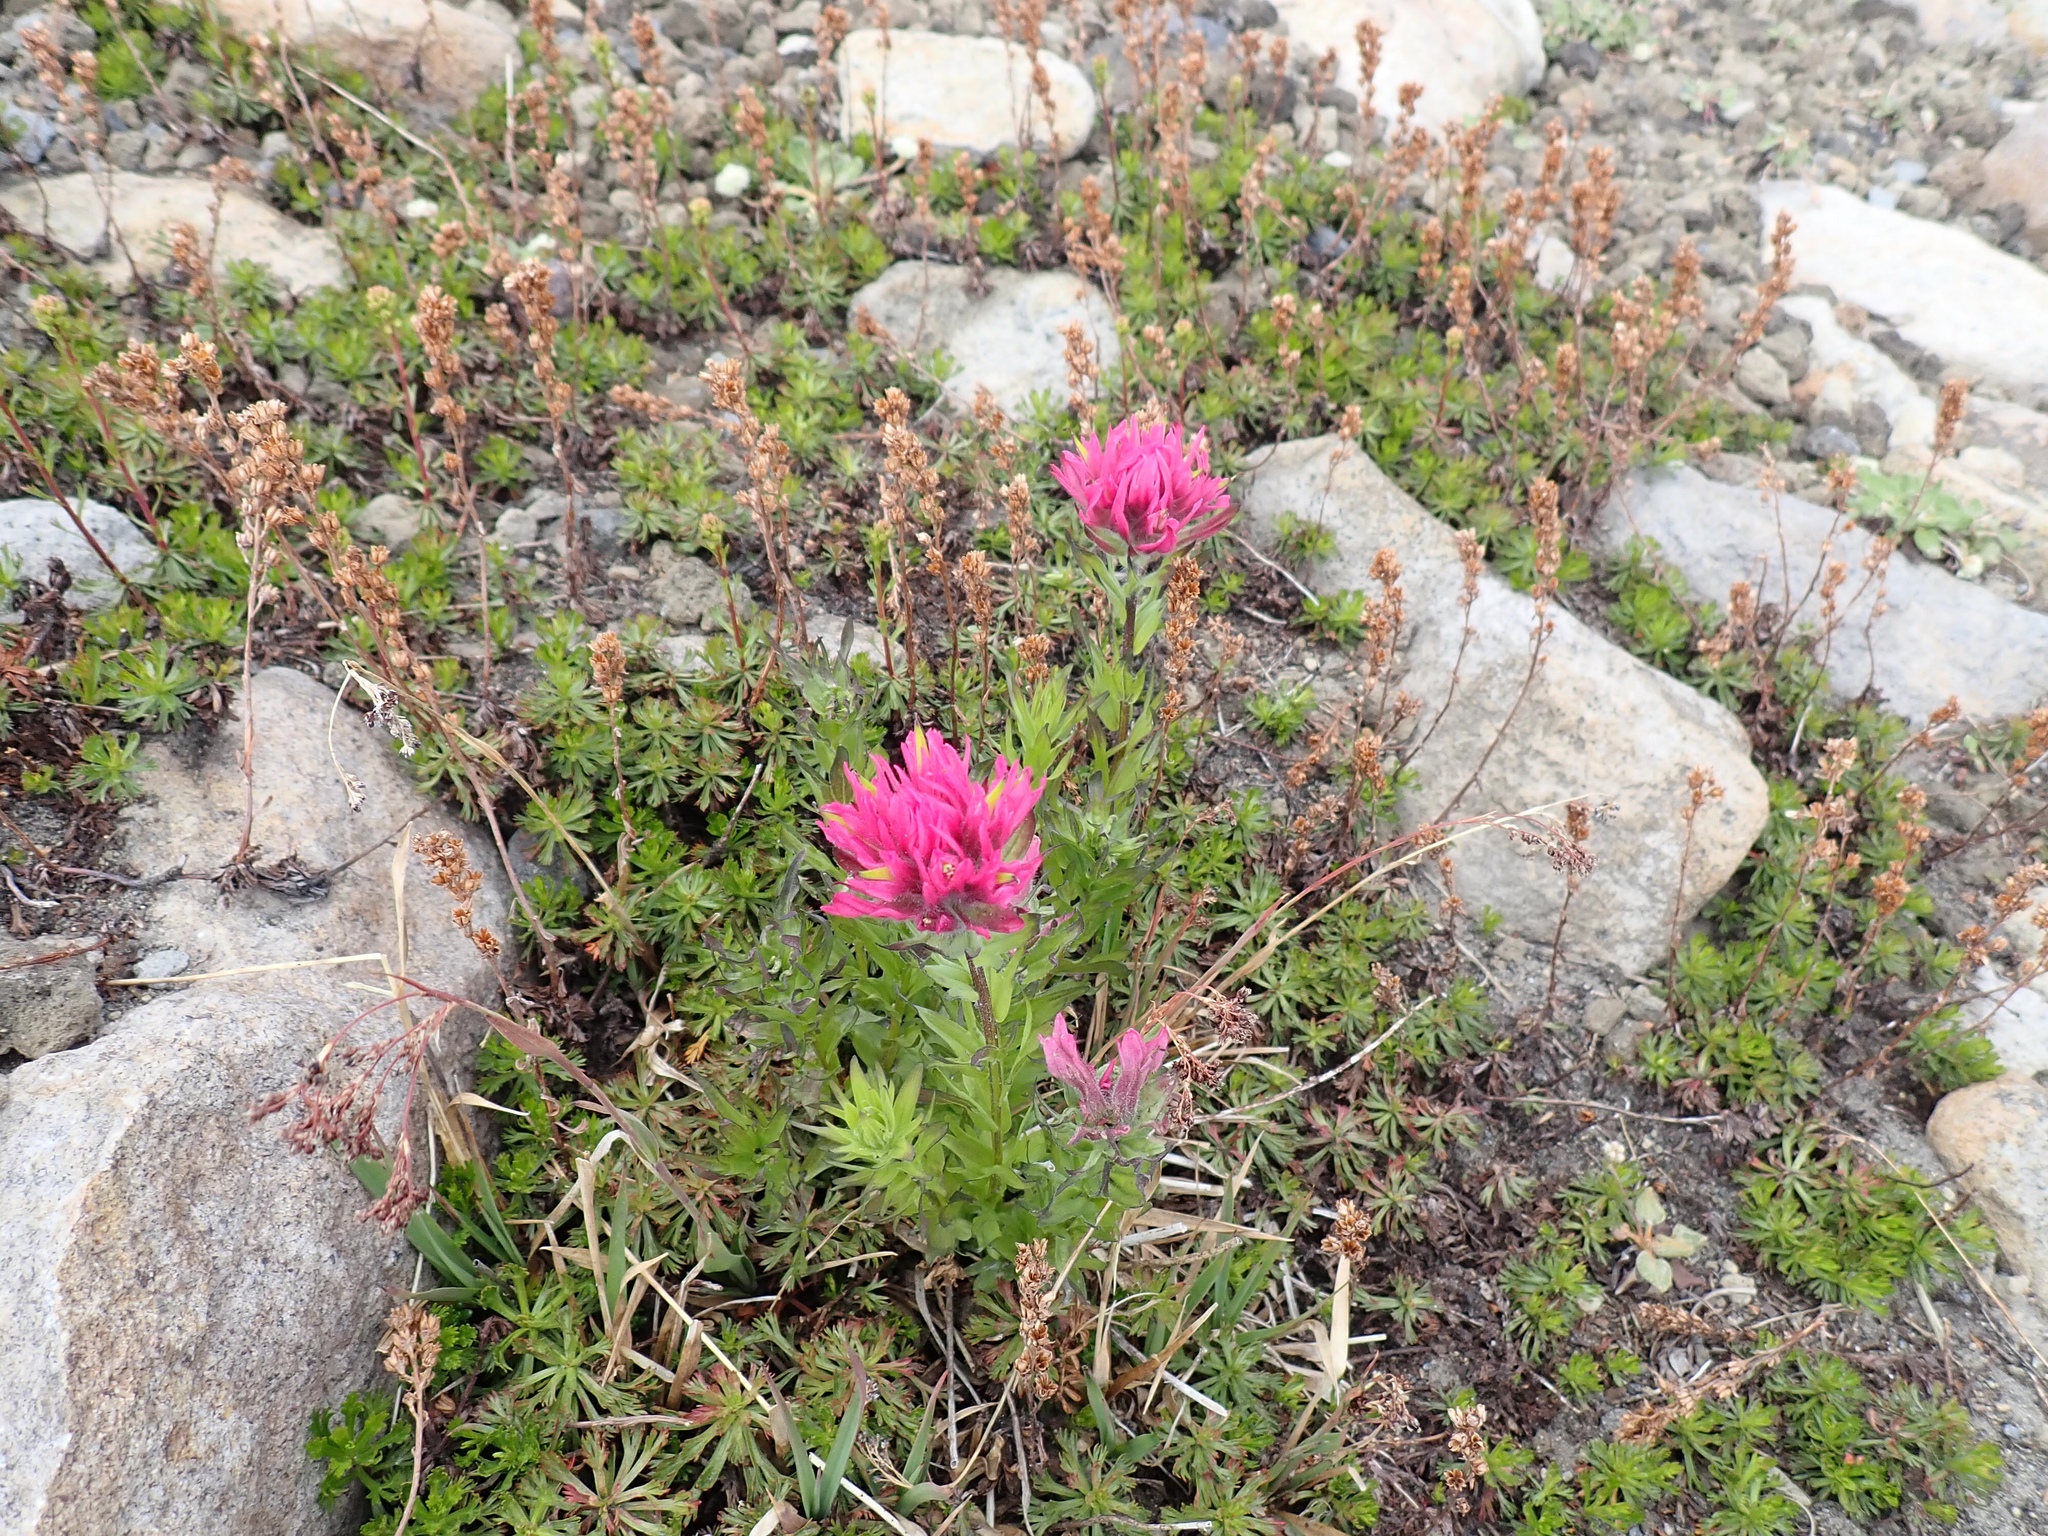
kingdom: Plantae
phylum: Tracheophyta
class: Magnoliopsida
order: Rosales
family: Rosaceae
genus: Luetkea
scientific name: Luetkea pectinata
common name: Partridgefoot
